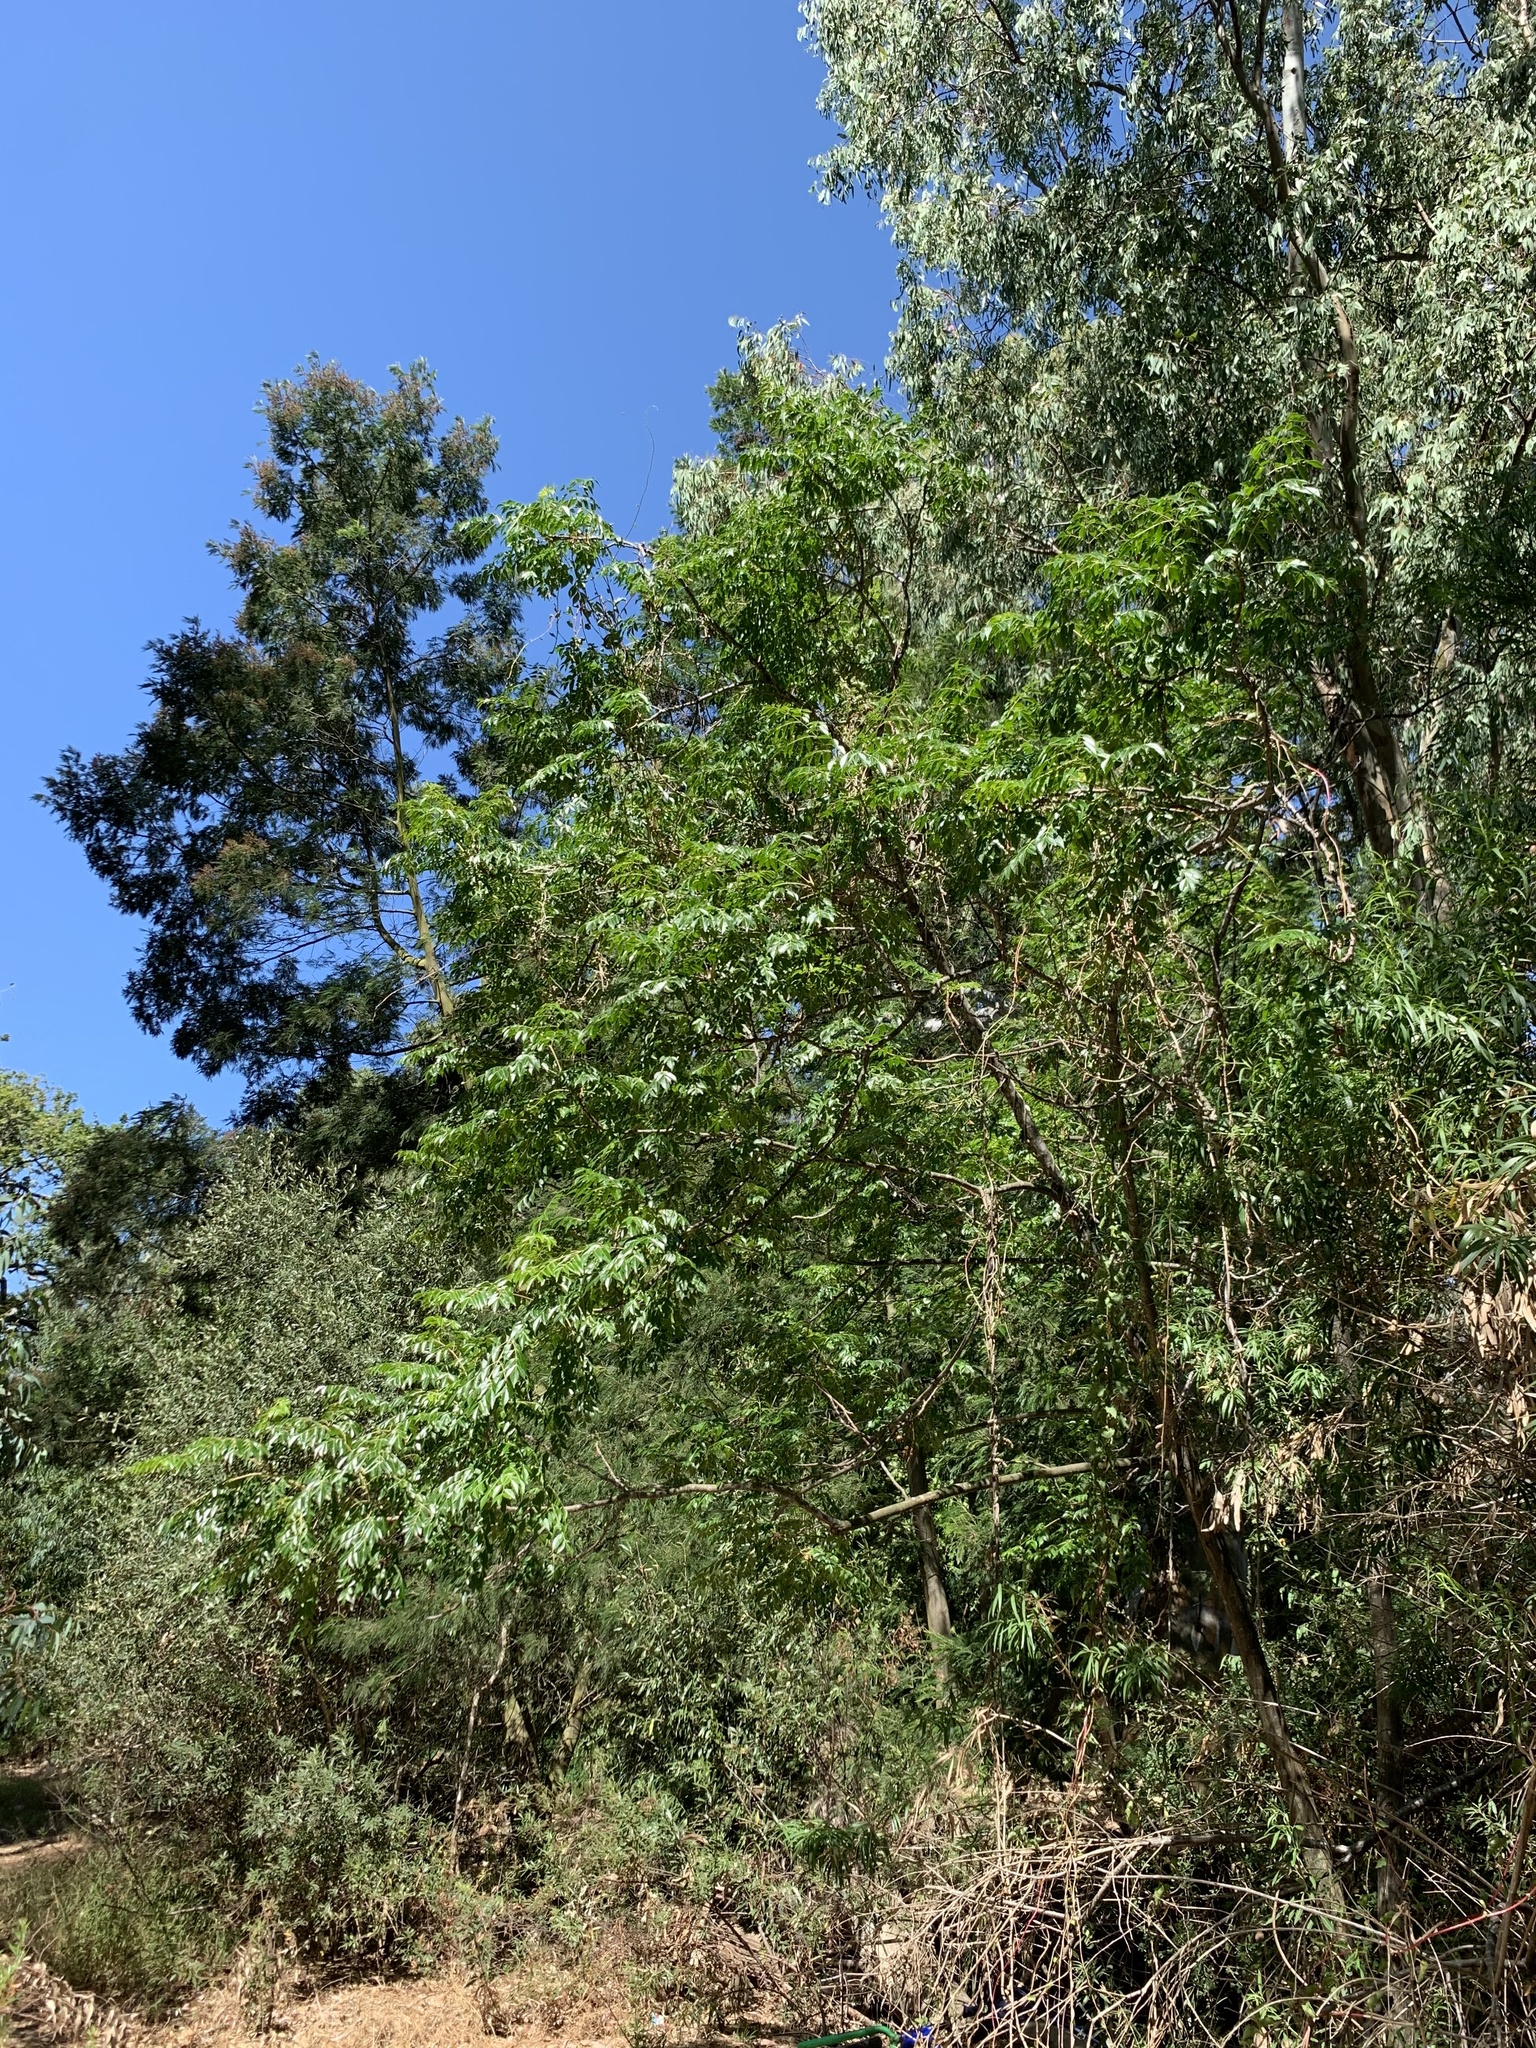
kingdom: Plantae
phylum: Tracheophyta
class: Magnoliopsida
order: Sapindales
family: Meliaceae
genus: Melia
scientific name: Melia azedarach
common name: Chinaberrytree
